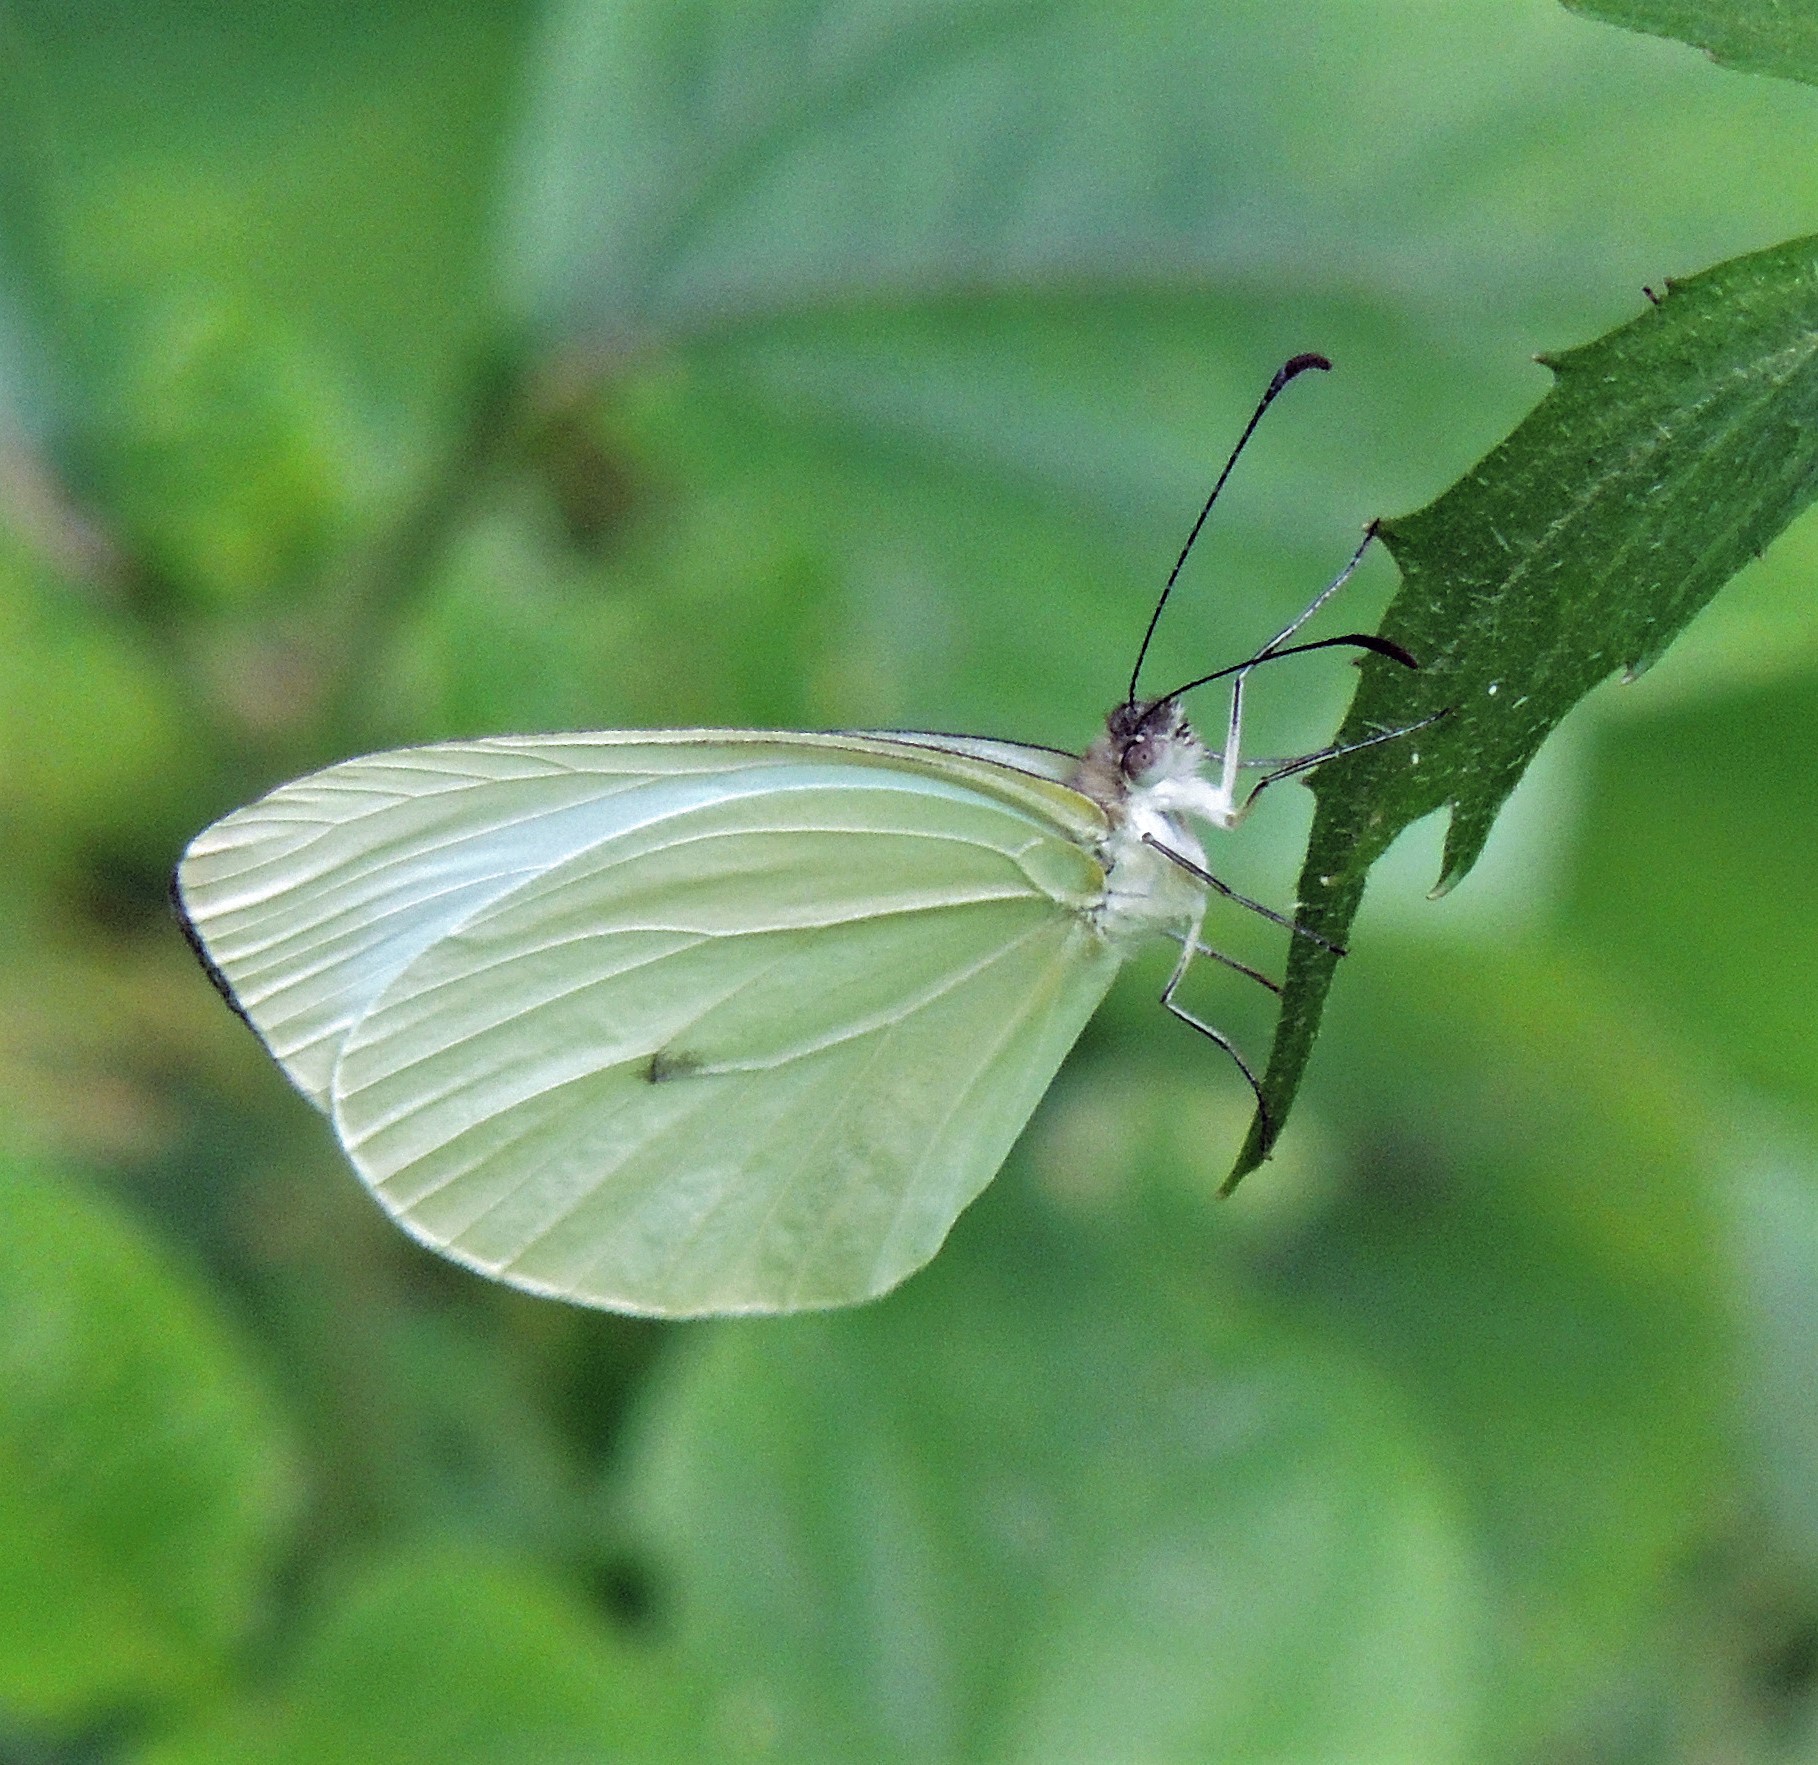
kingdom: Animalia
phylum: Arthropoda
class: Insecta
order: Lepidoptera
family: Pieridae
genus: Pseudopieris
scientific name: Pseudopieris nehemia
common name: Clean mimic-white
